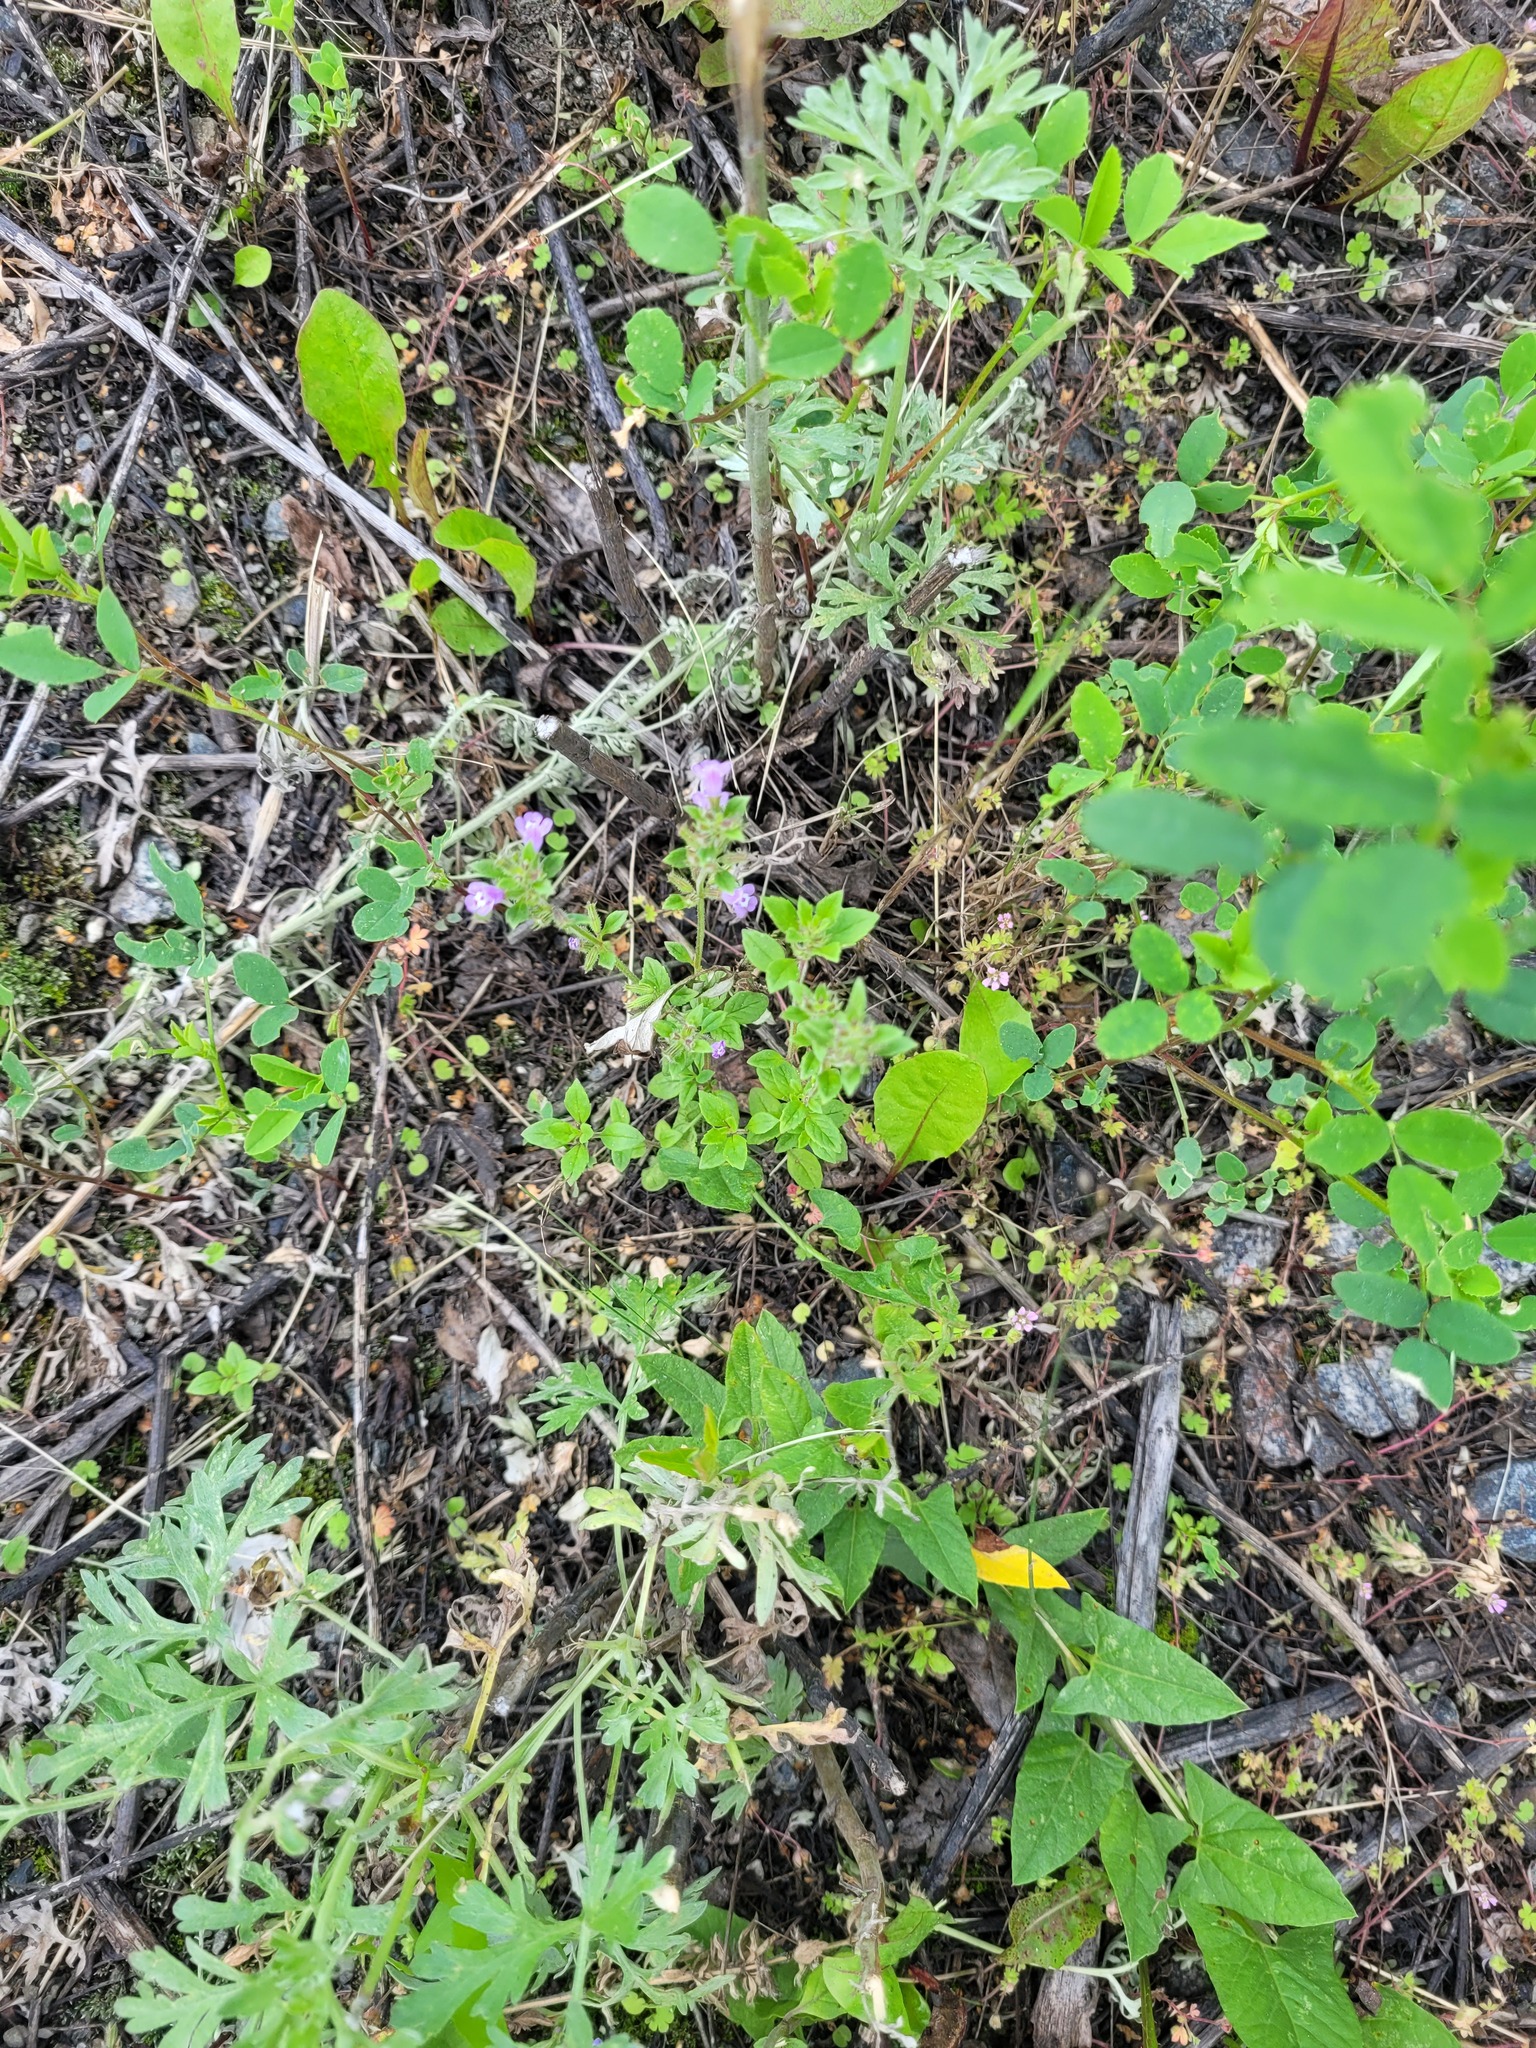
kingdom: Plantae
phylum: Tracheophyta
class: Magnoliopsida
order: Lamiales
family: Lamiaceae
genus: Clinopodium
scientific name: Clinopodium acinos
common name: Basil thyme
